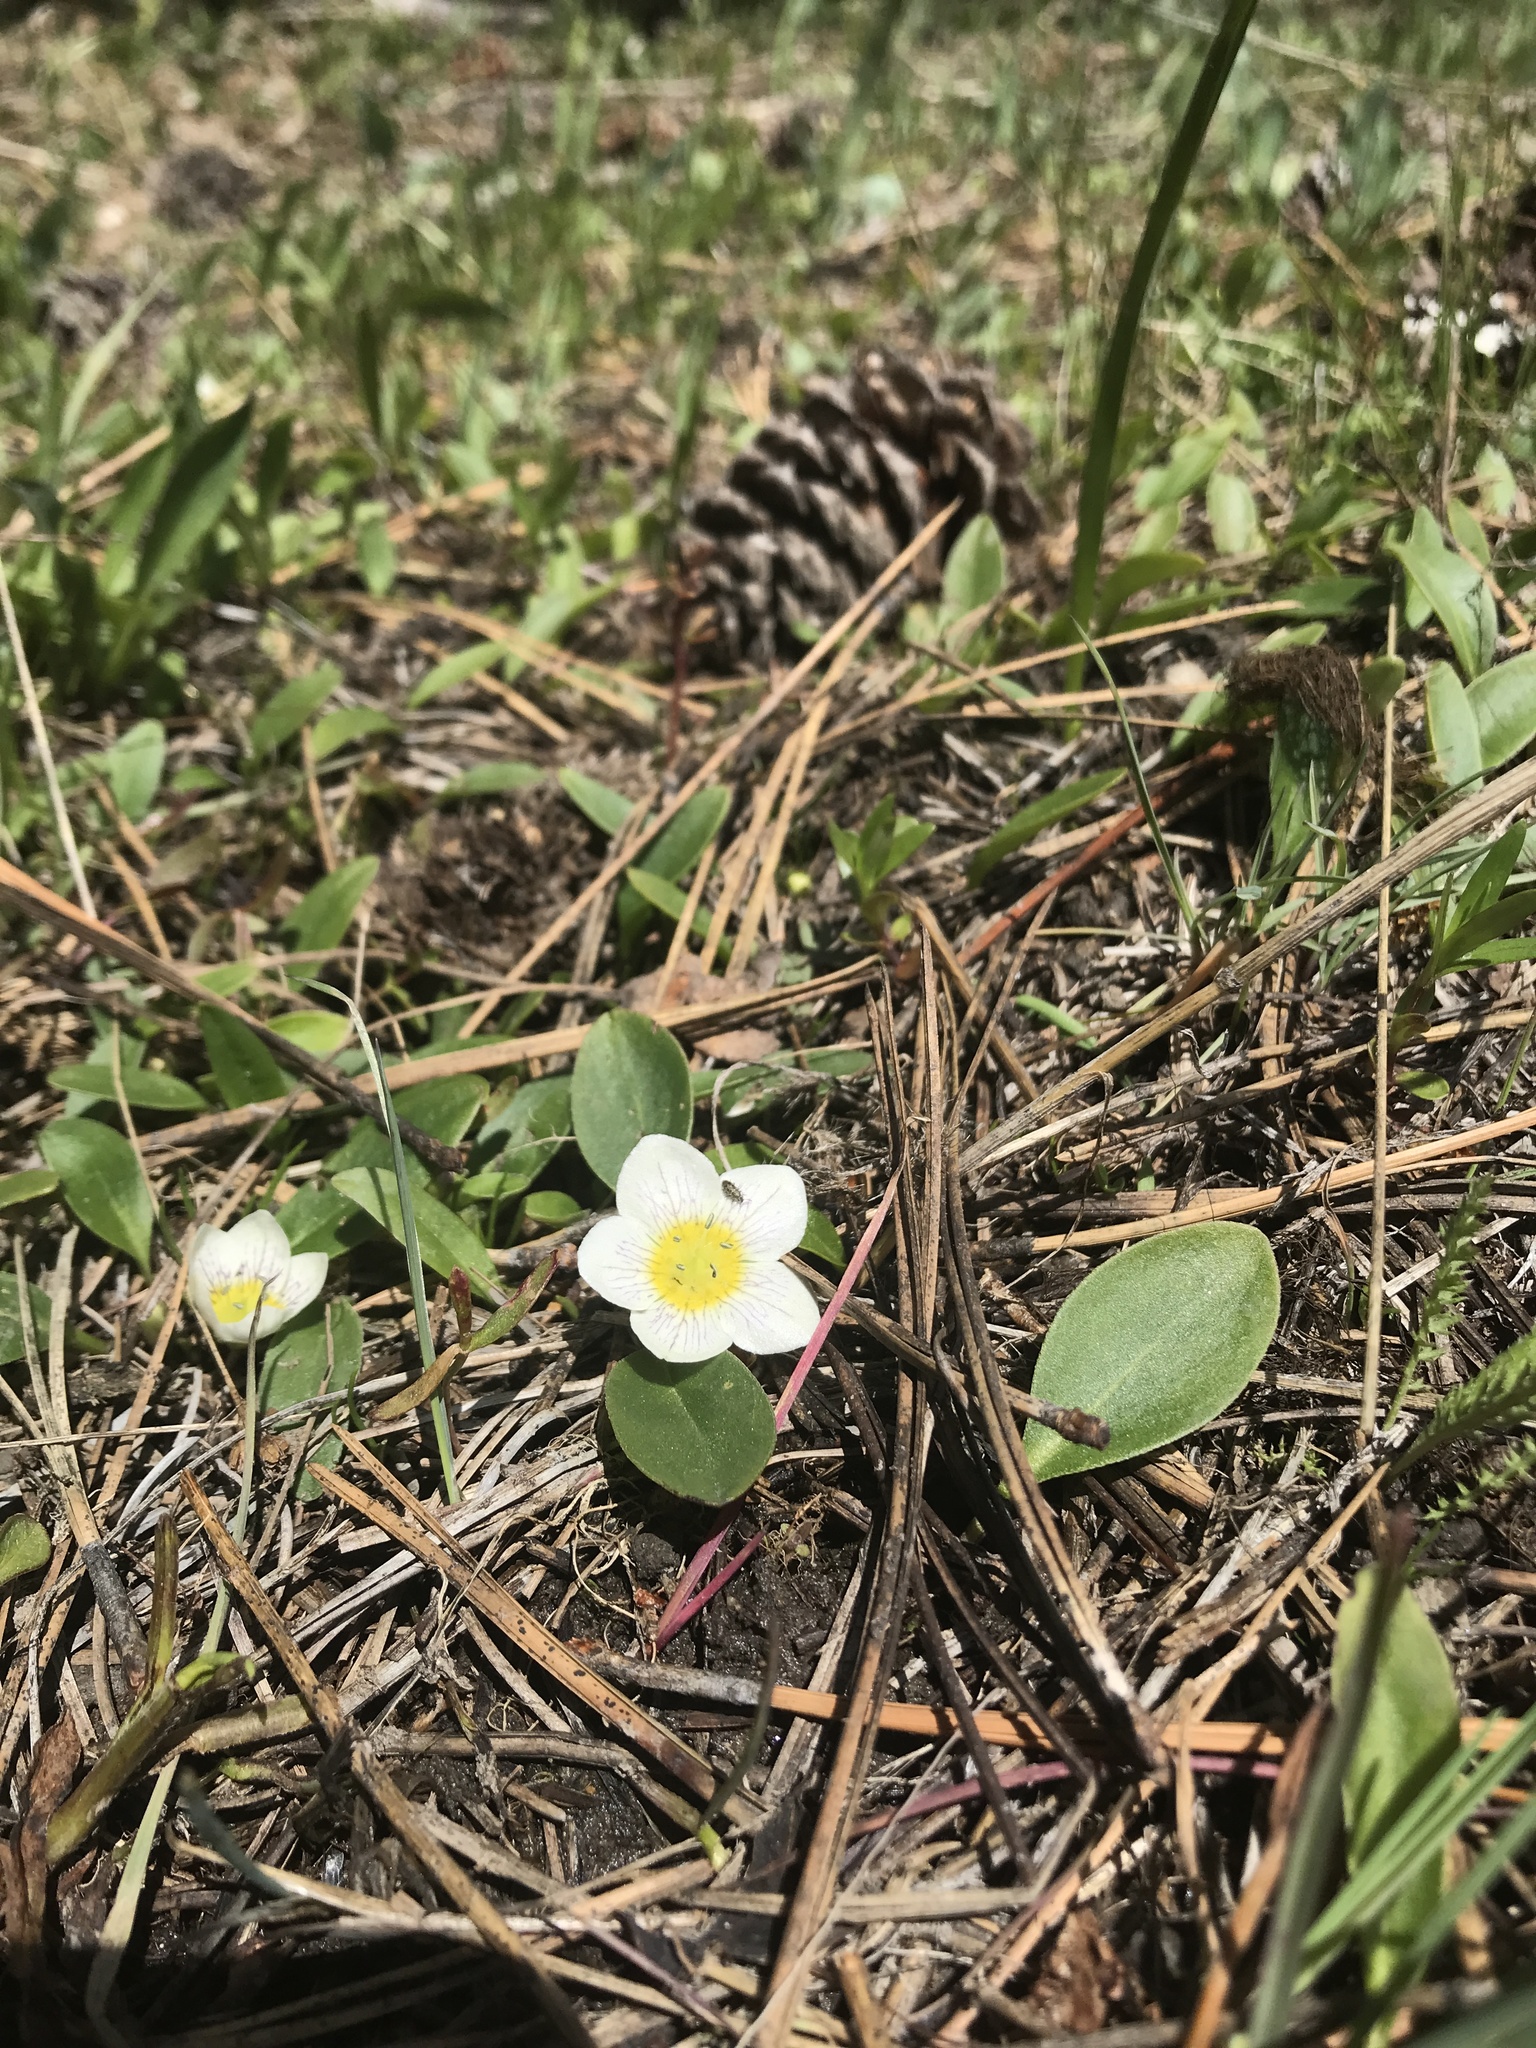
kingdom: Plantae
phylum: Tracheophyta
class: Magnoliopsida
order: Boraginales
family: Hydrophyllaceae
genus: Hesperochiron
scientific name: Hesperochiron pumilus
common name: Dwarf hesperochiron
